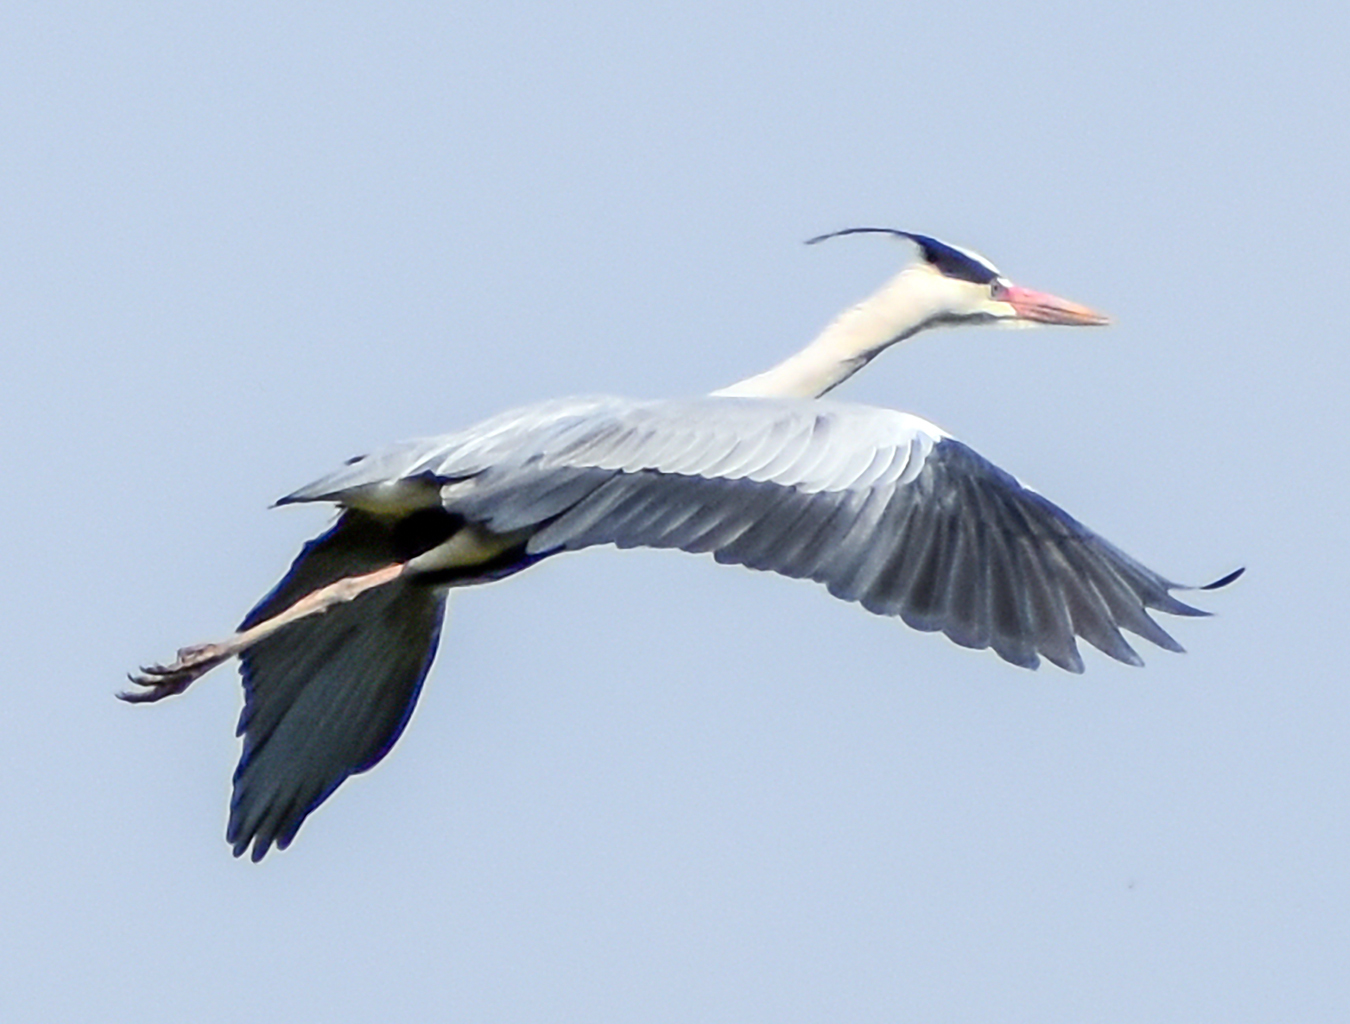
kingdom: Animalia
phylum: Chordata
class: Aves
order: Pelecaniformes
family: Ardeidae
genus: Ardea
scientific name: Ardea cinerea
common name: Grey heron
